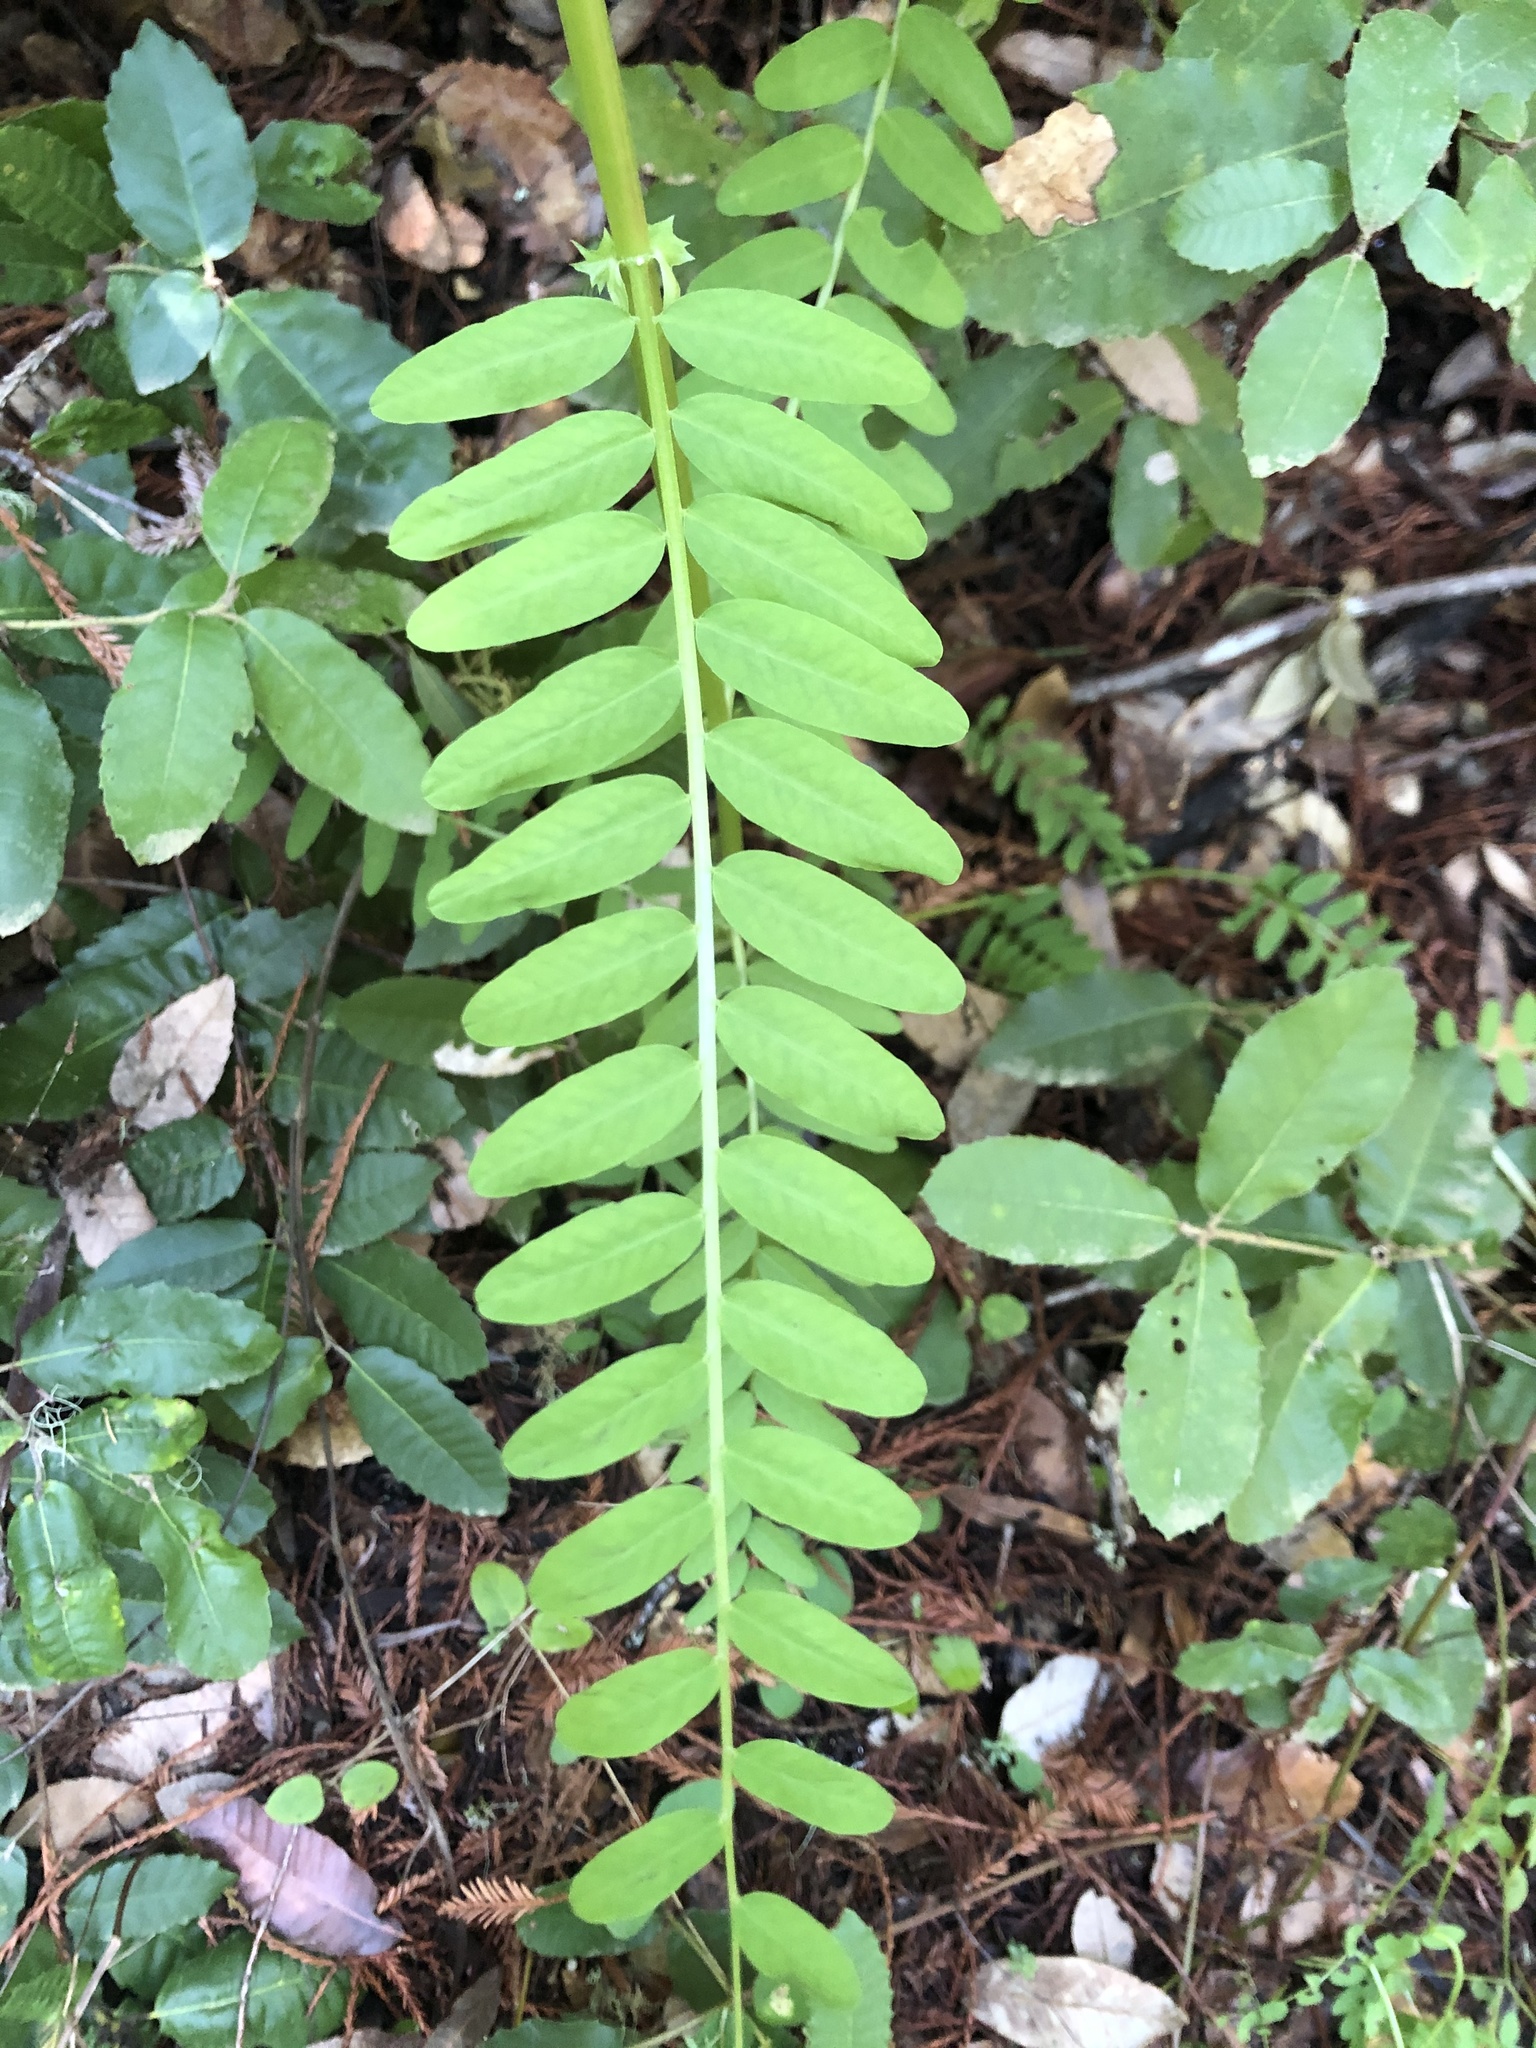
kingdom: Plantae
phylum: Tracheophyta
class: Magnoliopsida
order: Fabales
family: Fabaceae
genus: Vicia
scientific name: Vicia
